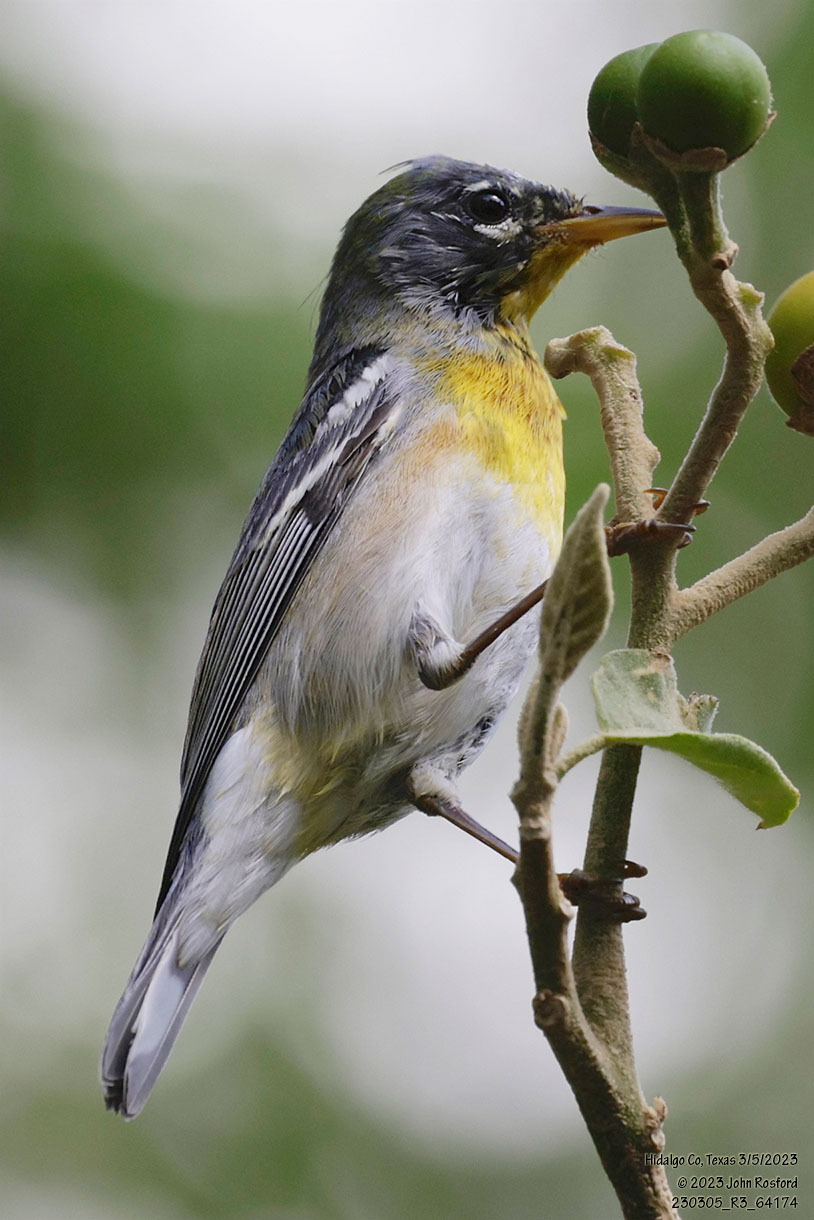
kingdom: Animalia
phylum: Chordata
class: Aves
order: Passeriformes
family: Parulidae
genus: Setophaga
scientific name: Setophaga americana
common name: Northern parula
